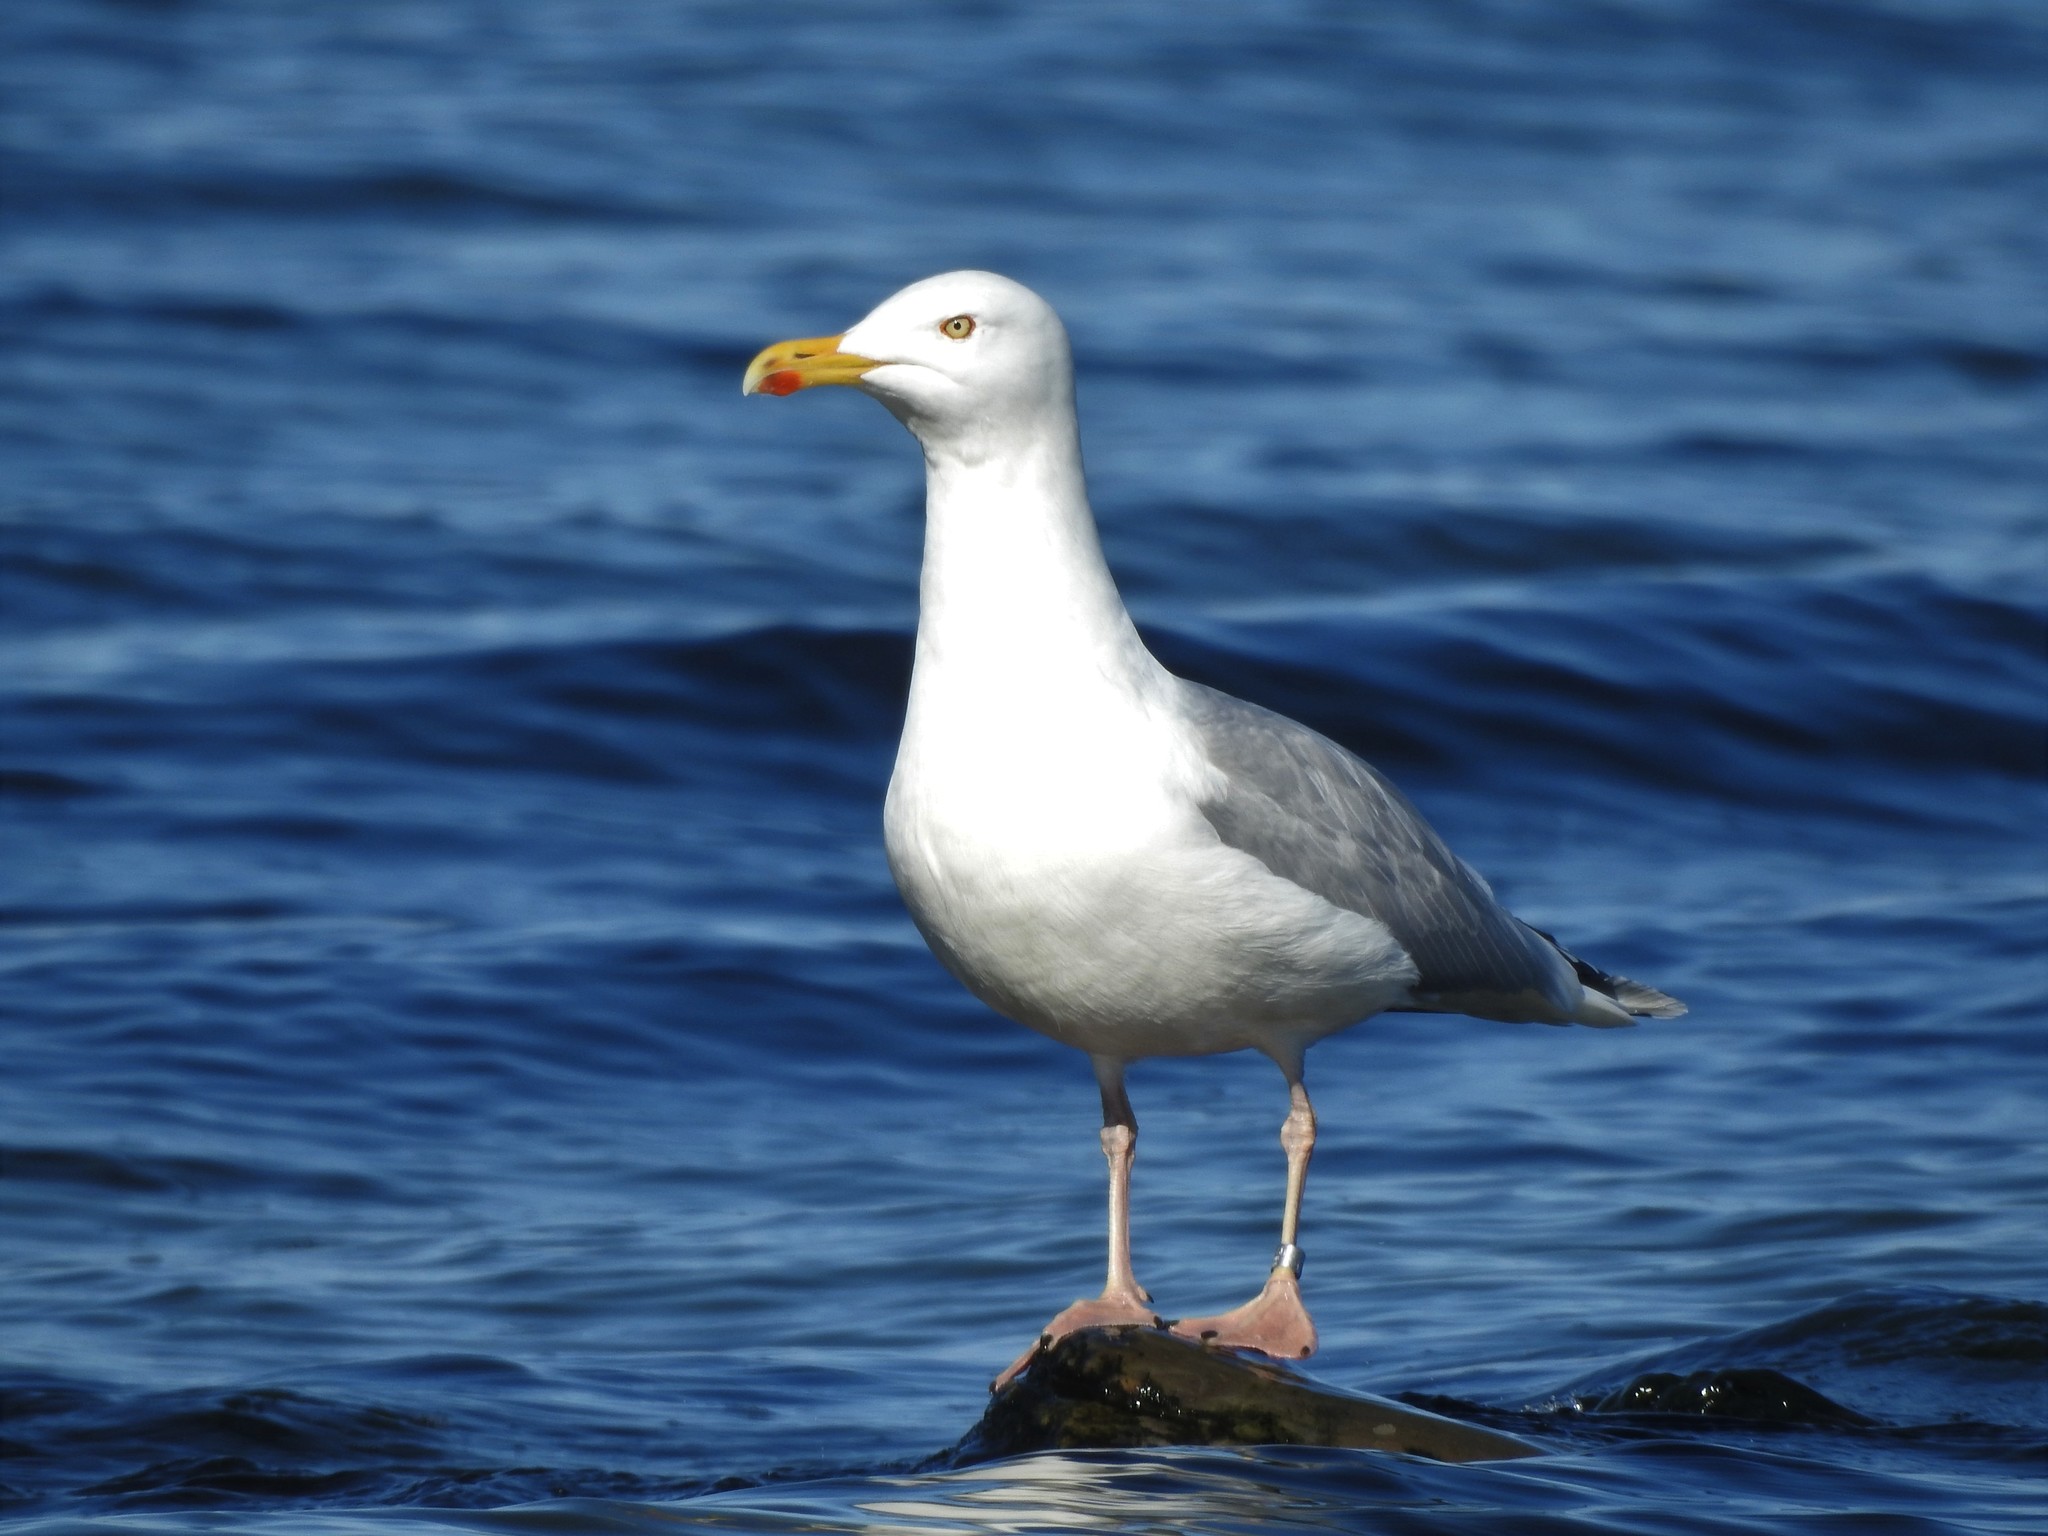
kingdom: Animalia
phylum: Chordata
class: Aves
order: Charadriiformes
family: Laridae
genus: Larus
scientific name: Larus argentatus
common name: Herring gull
